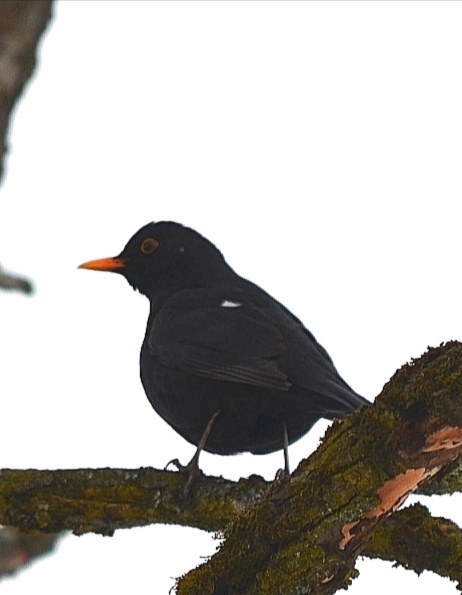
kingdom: Animalia
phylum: Chordata
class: Aves
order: Passeriformes
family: Turdidae
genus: Turdus
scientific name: Turdus merula
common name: Common blackbird
